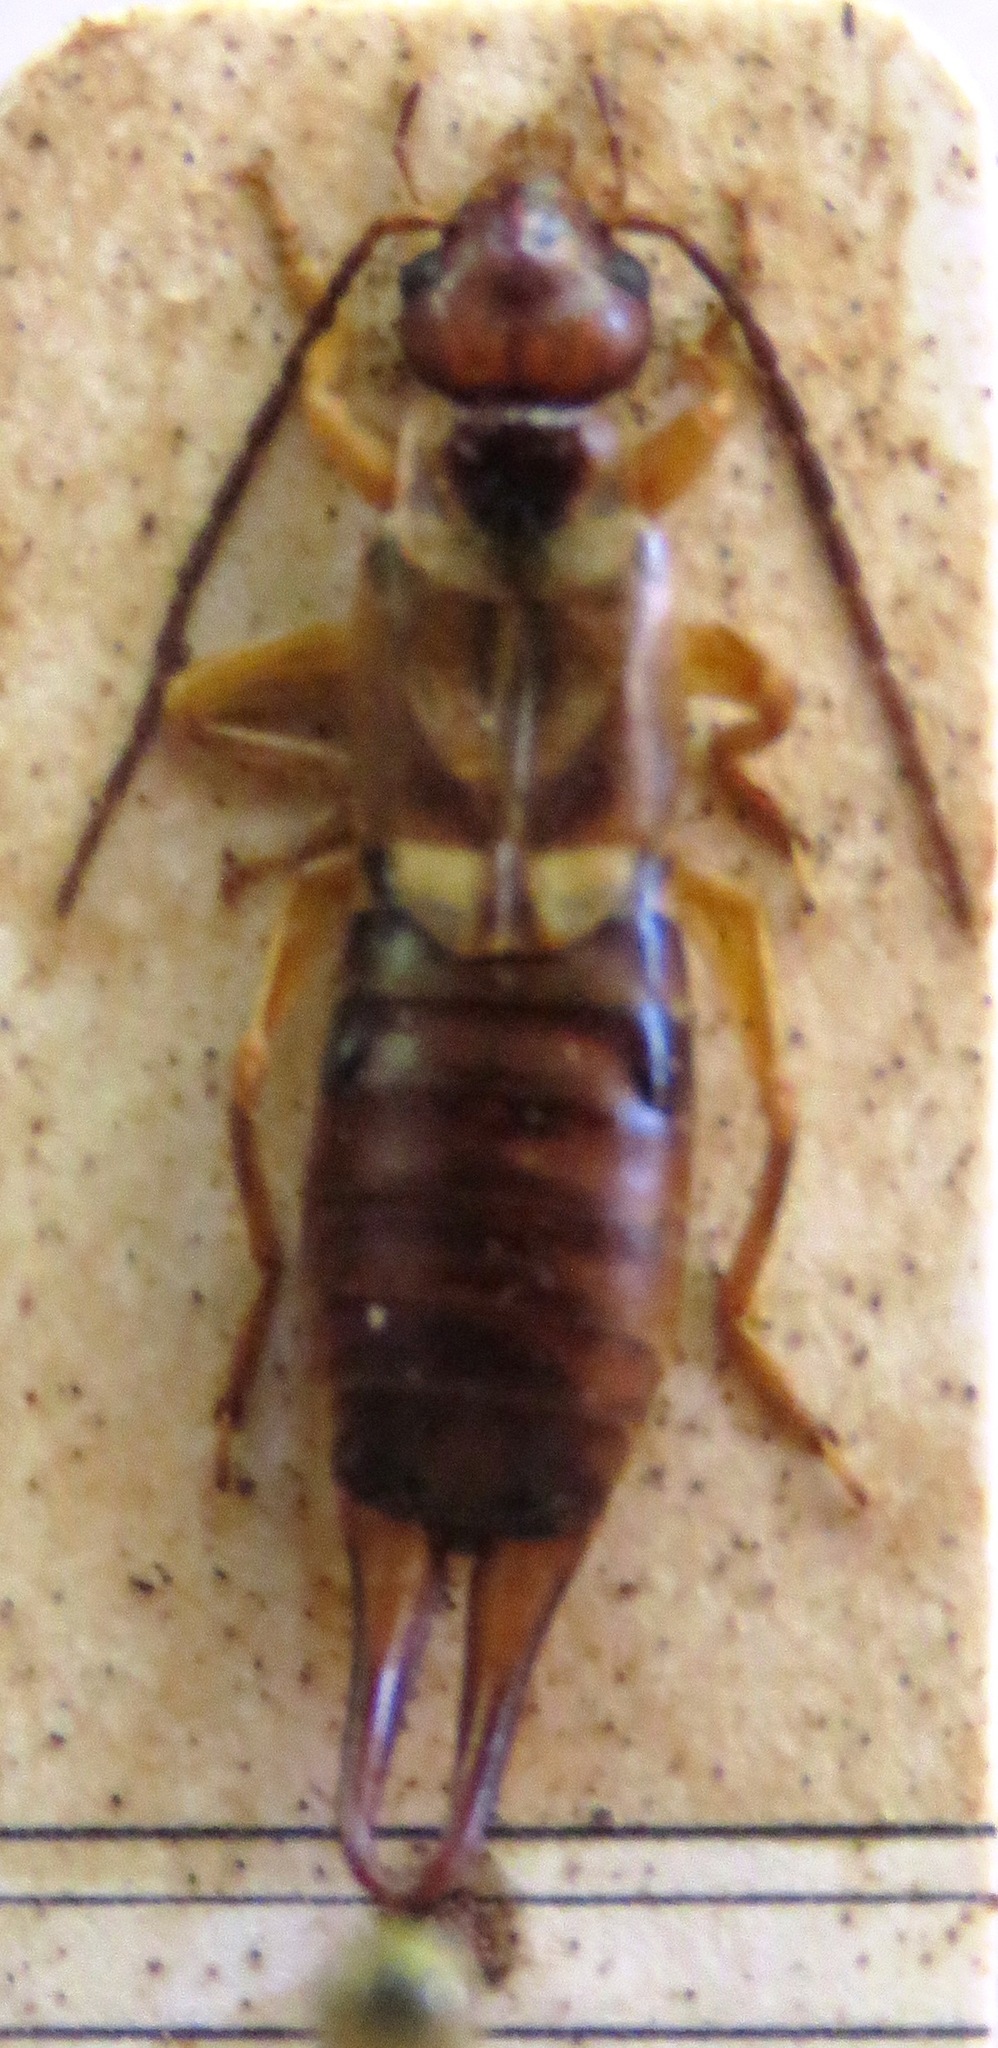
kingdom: Animalia
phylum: Arthropoda
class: Insecta
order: Dermaptera
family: Forficulidae
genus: Forficula
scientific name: Forficula
